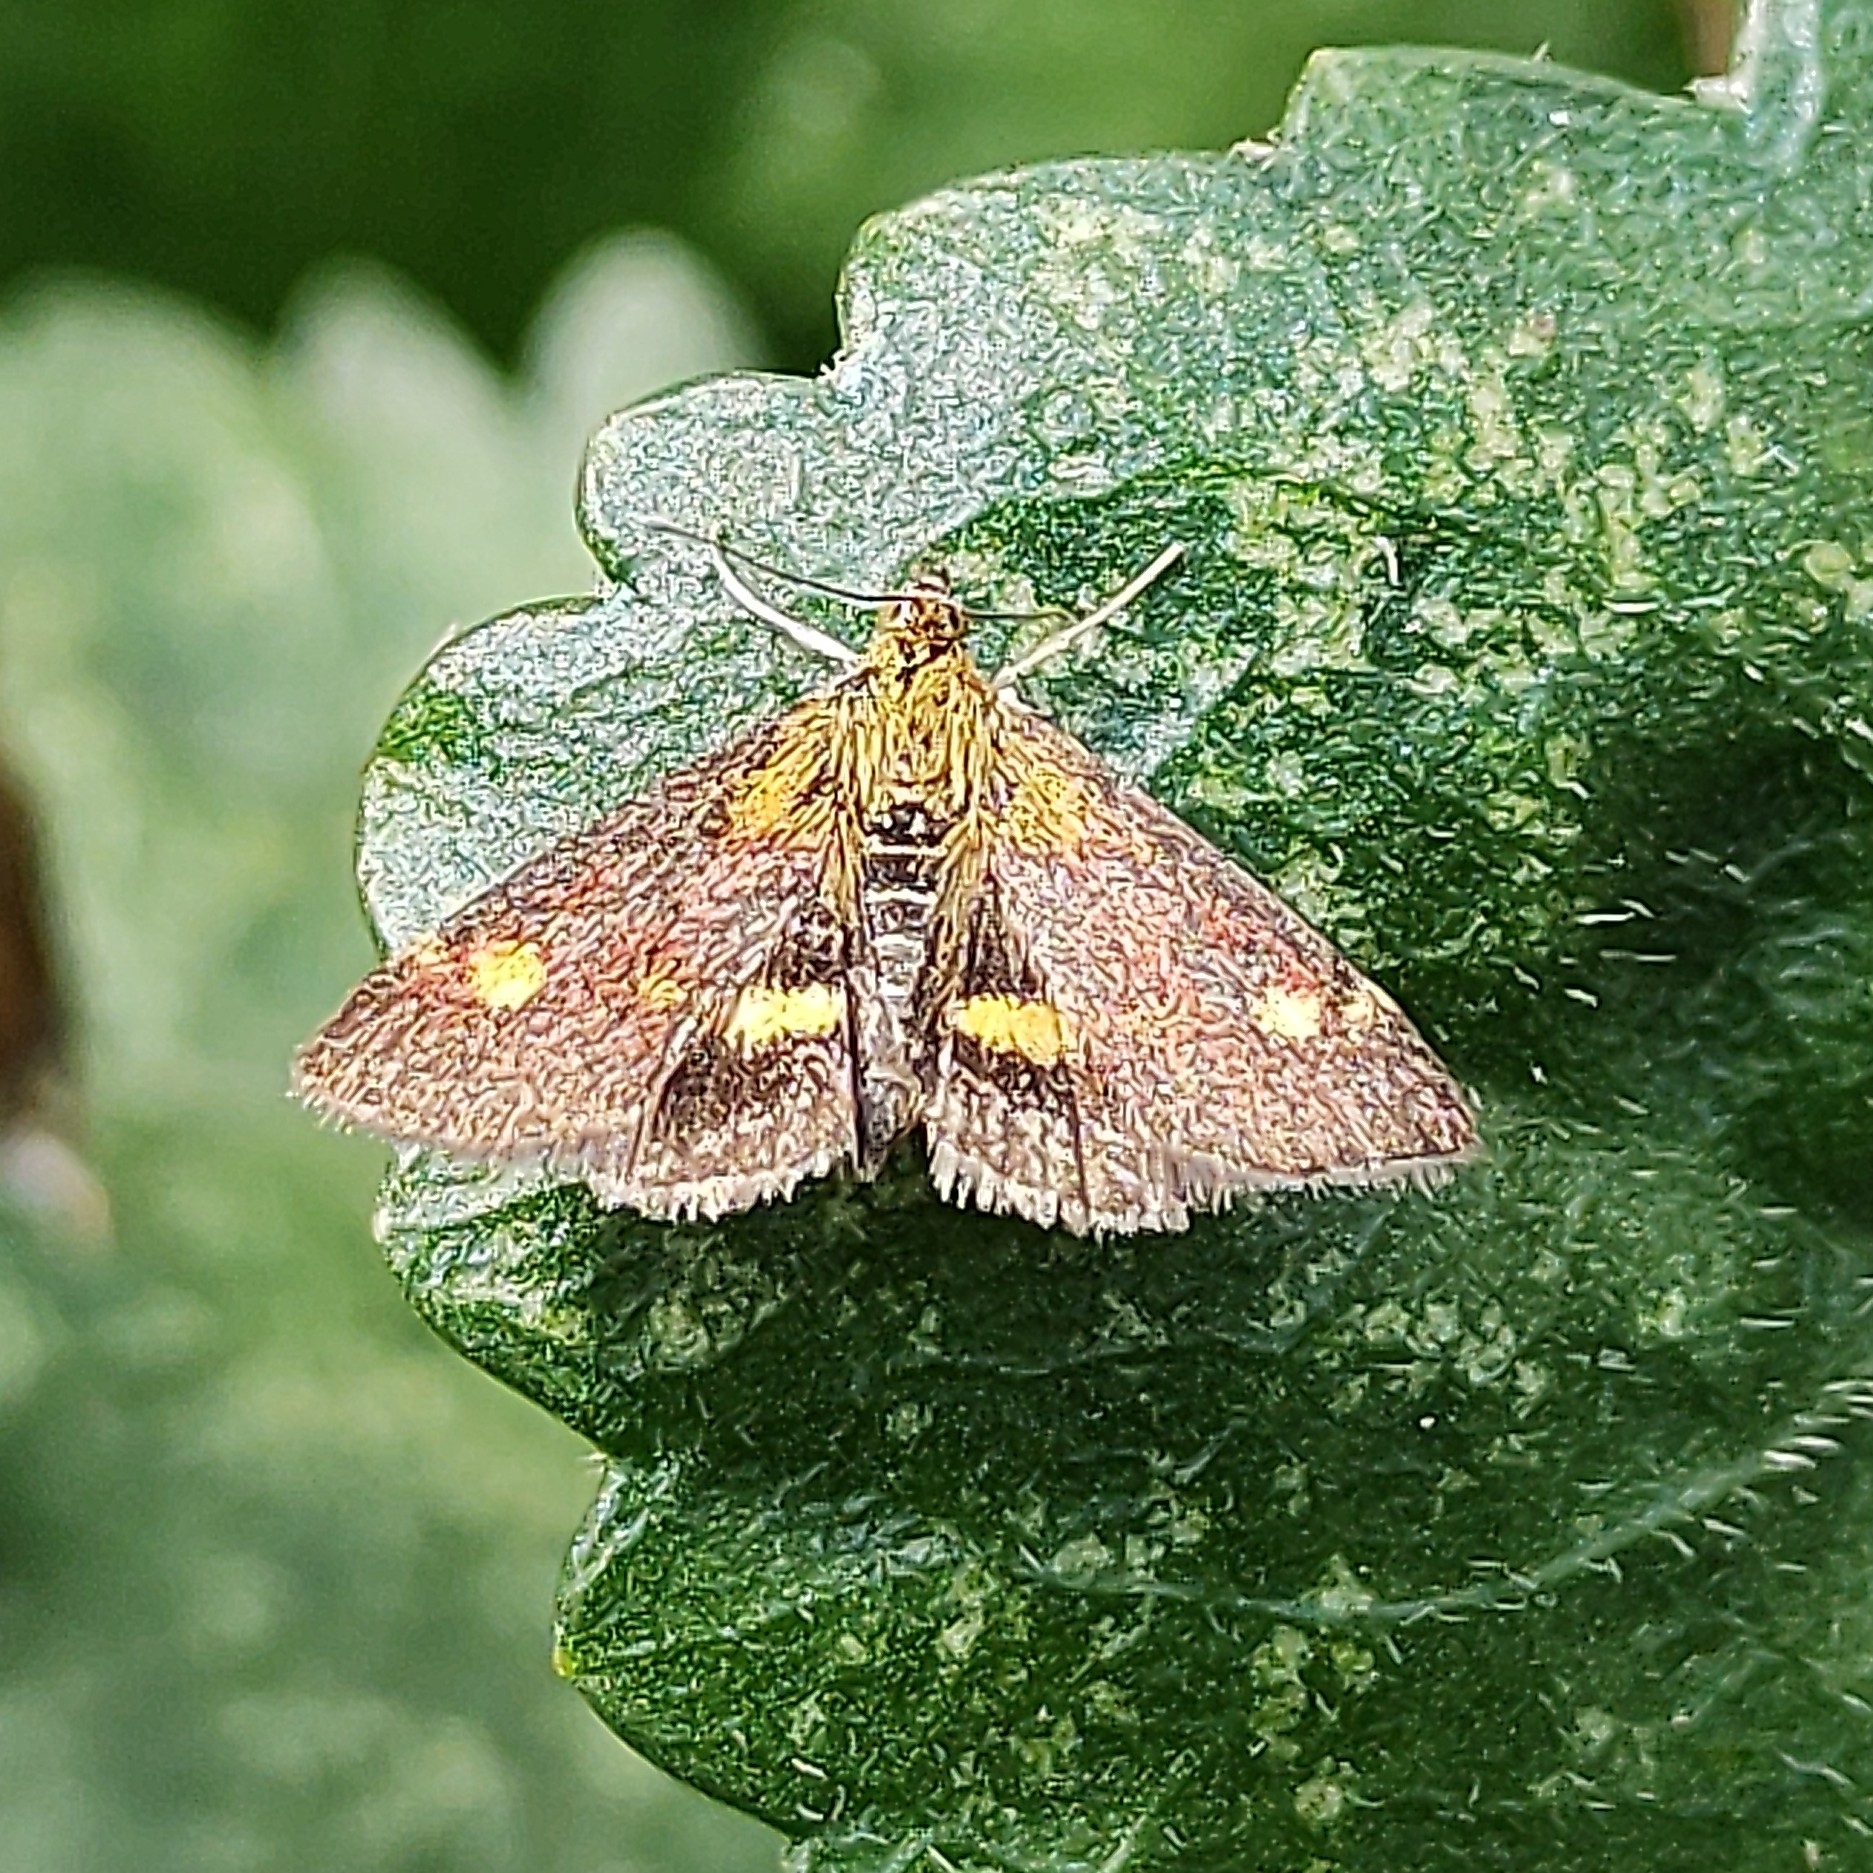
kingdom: Animalia
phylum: Arthropoda
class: Insecta
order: Lepidoptera
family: Crambidae
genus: Pyrausta
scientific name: Pyrausta aurata
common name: Small purple & gold
